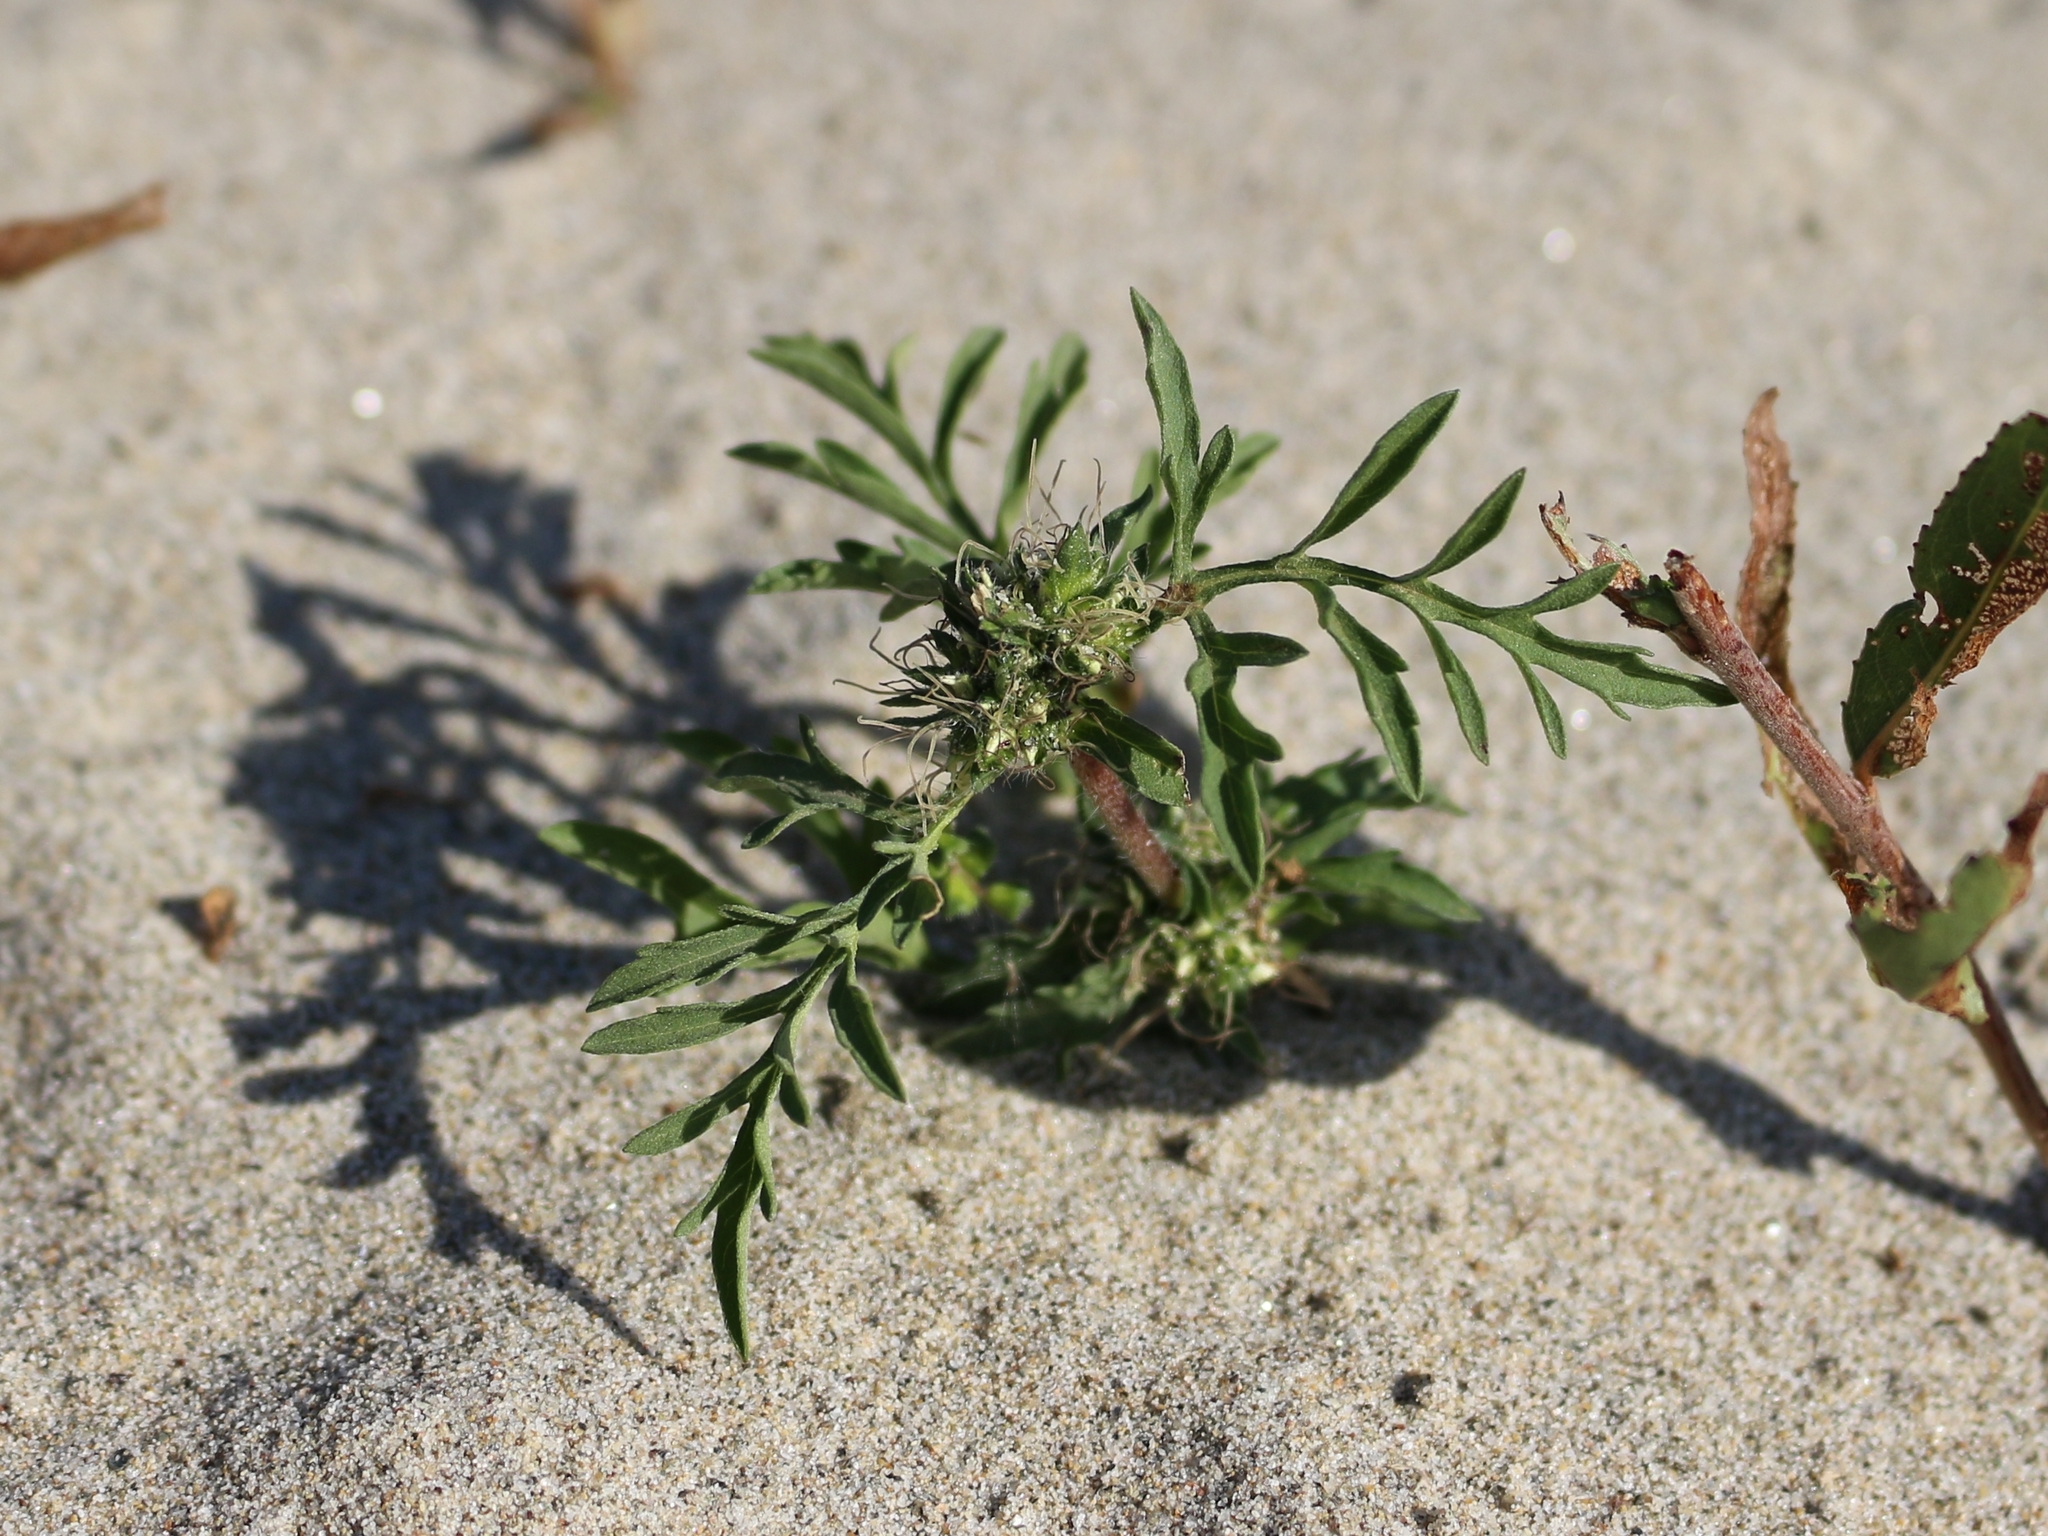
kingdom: Plantae
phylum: Tracheophyta
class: Magnoliopsida
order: Asterales
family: Asteraceae
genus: Ambrosia
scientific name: Ambrosia artemisiifolia
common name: Annual ragweed
